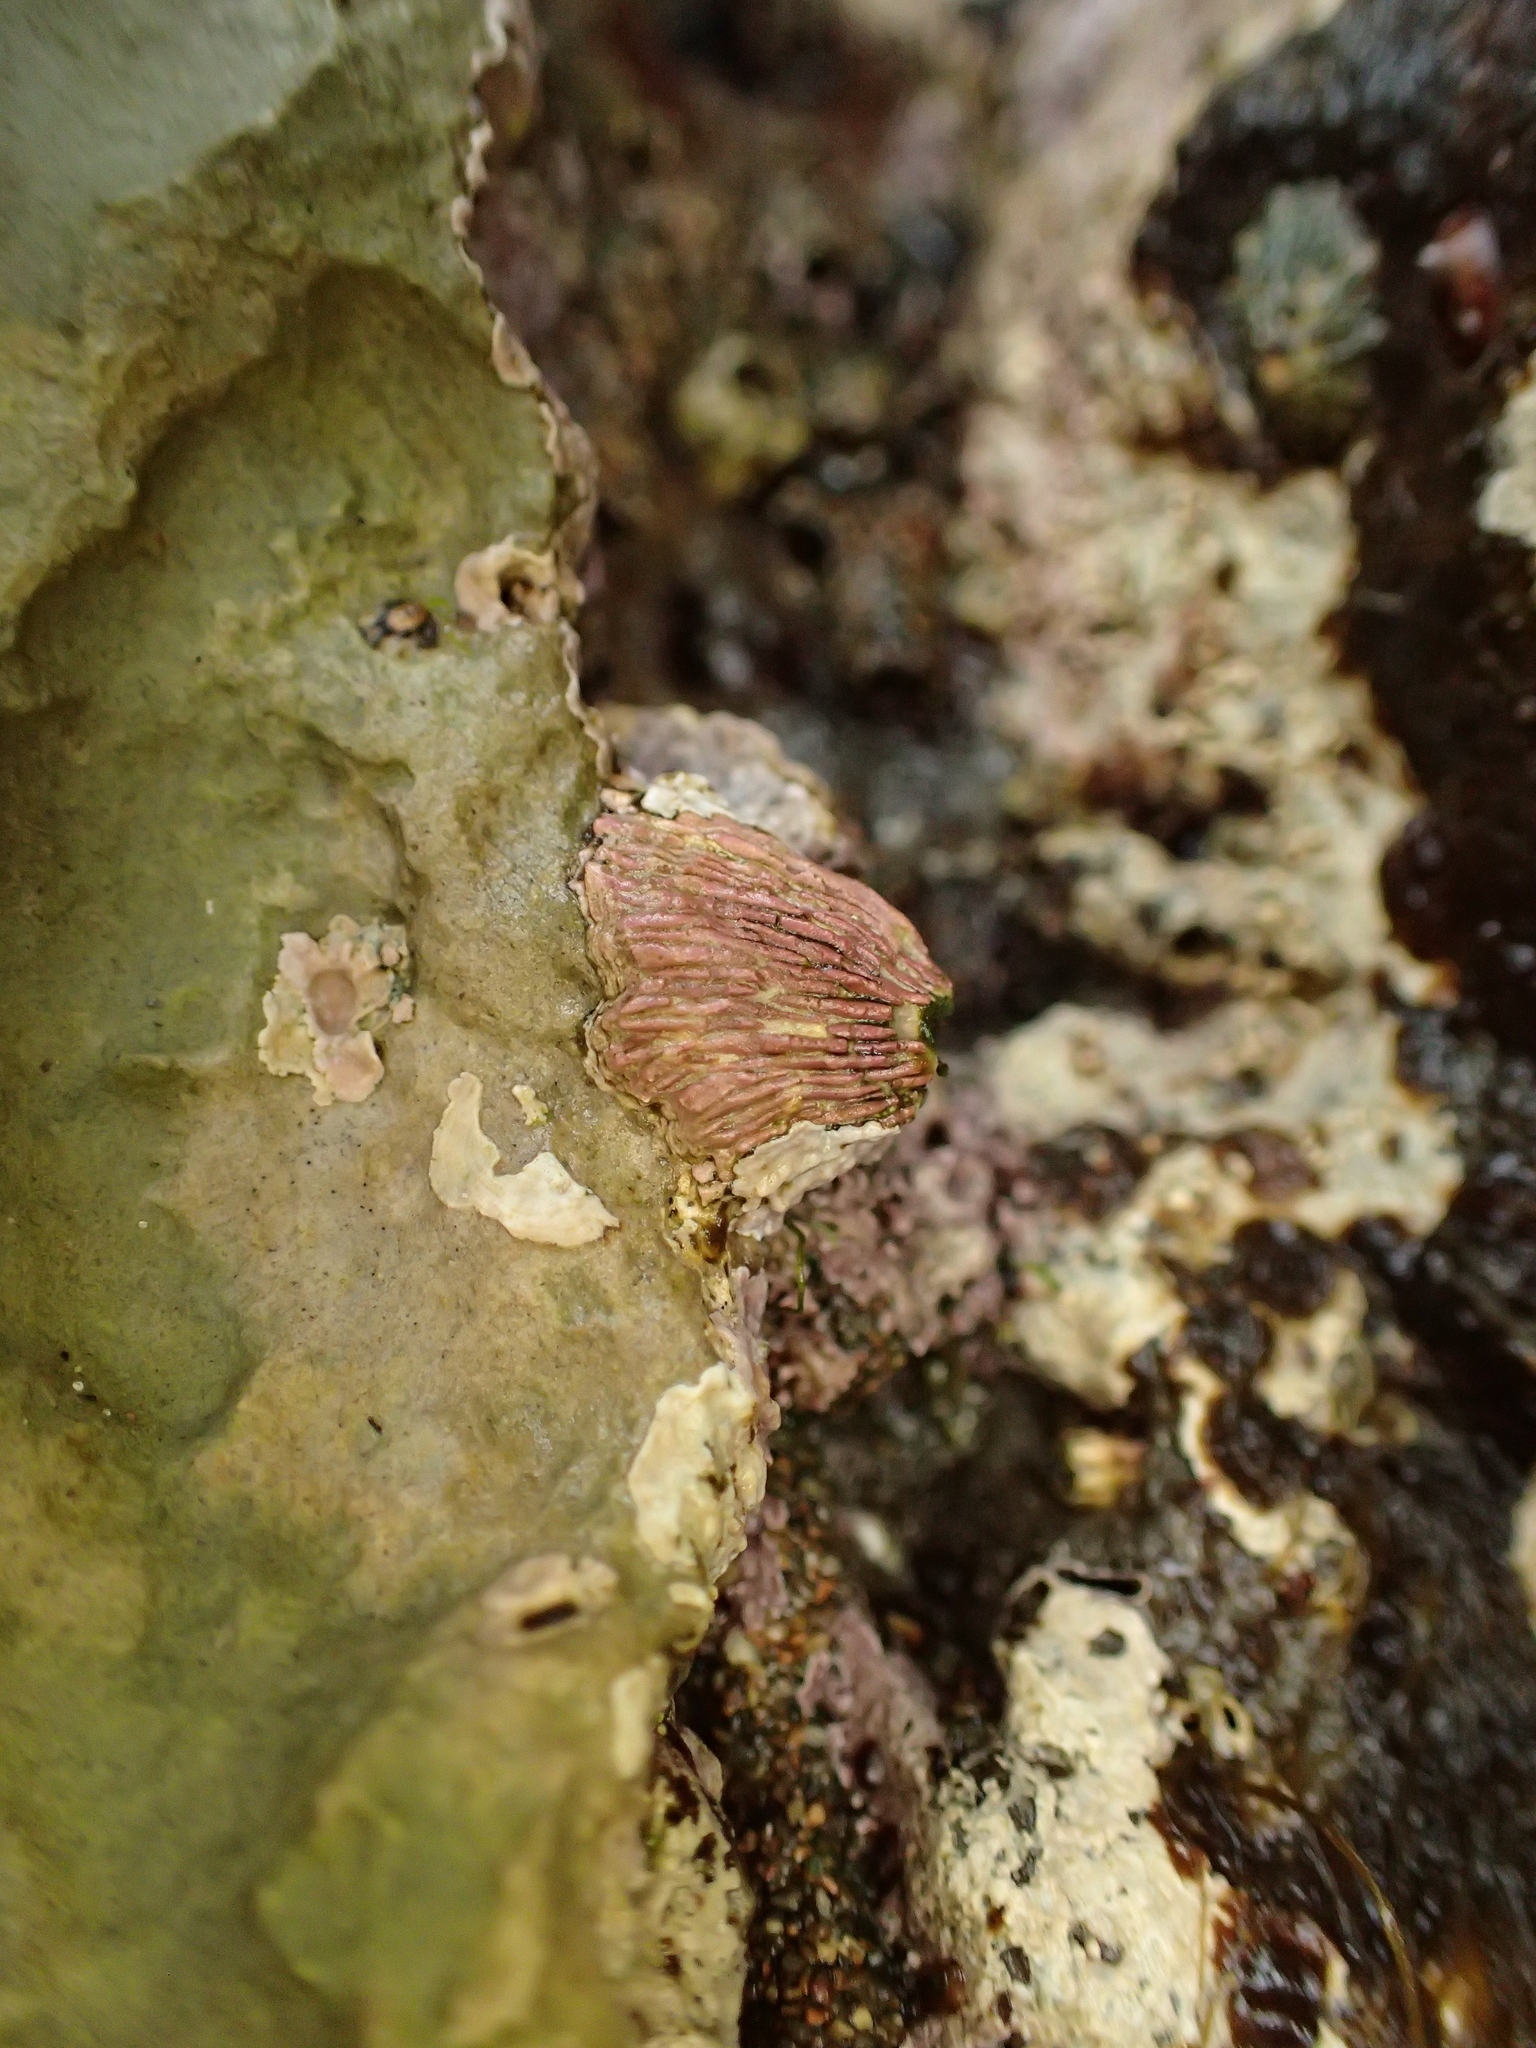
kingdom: Animalia
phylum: Arthropoda
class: Maxillopoda
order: Sessilia
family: Tetraclitidae
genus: Tetraclita
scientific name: Tetraclita rubescens
